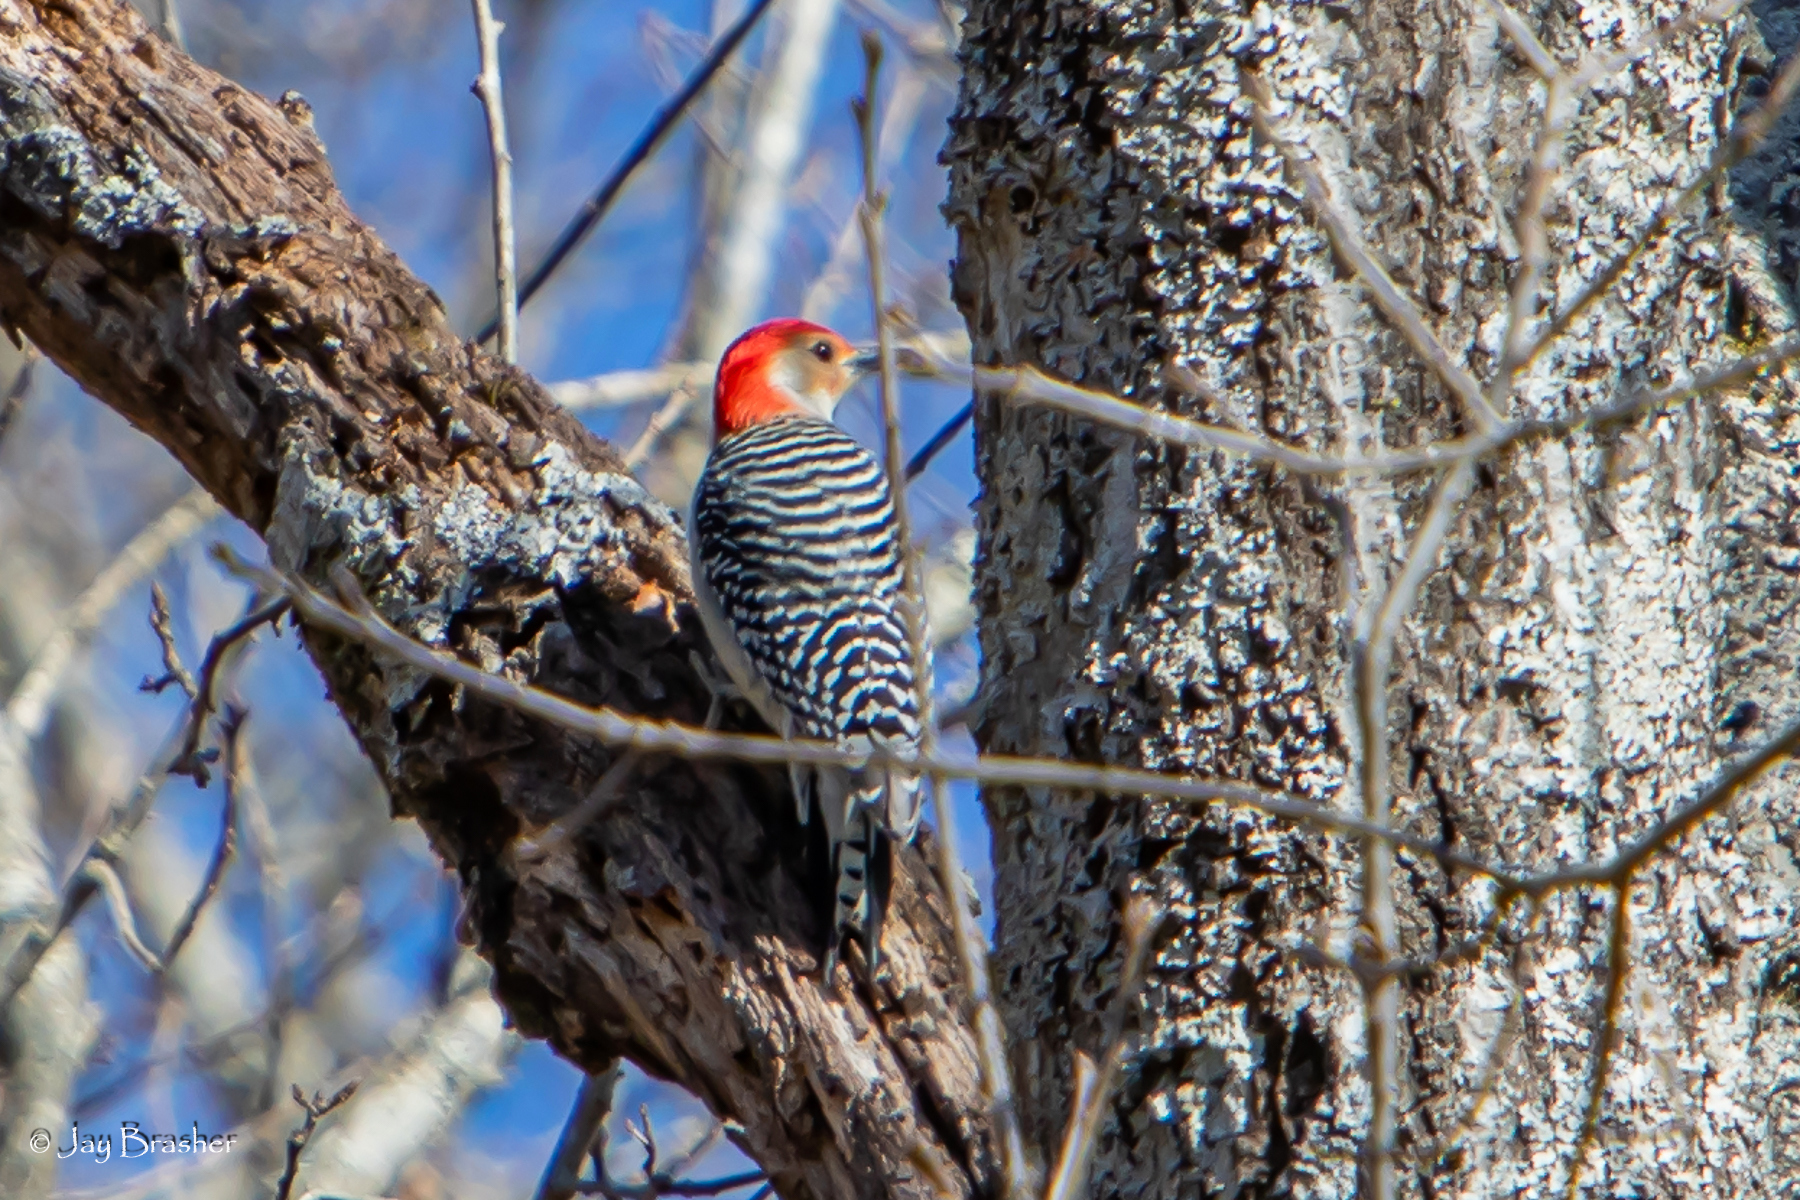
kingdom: Animalia
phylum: Chordata
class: Aves
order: Piciformes
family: Picidae
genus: Melanerpes
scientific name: Melanerpes carolinus
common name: Red-bellied woodpecker
